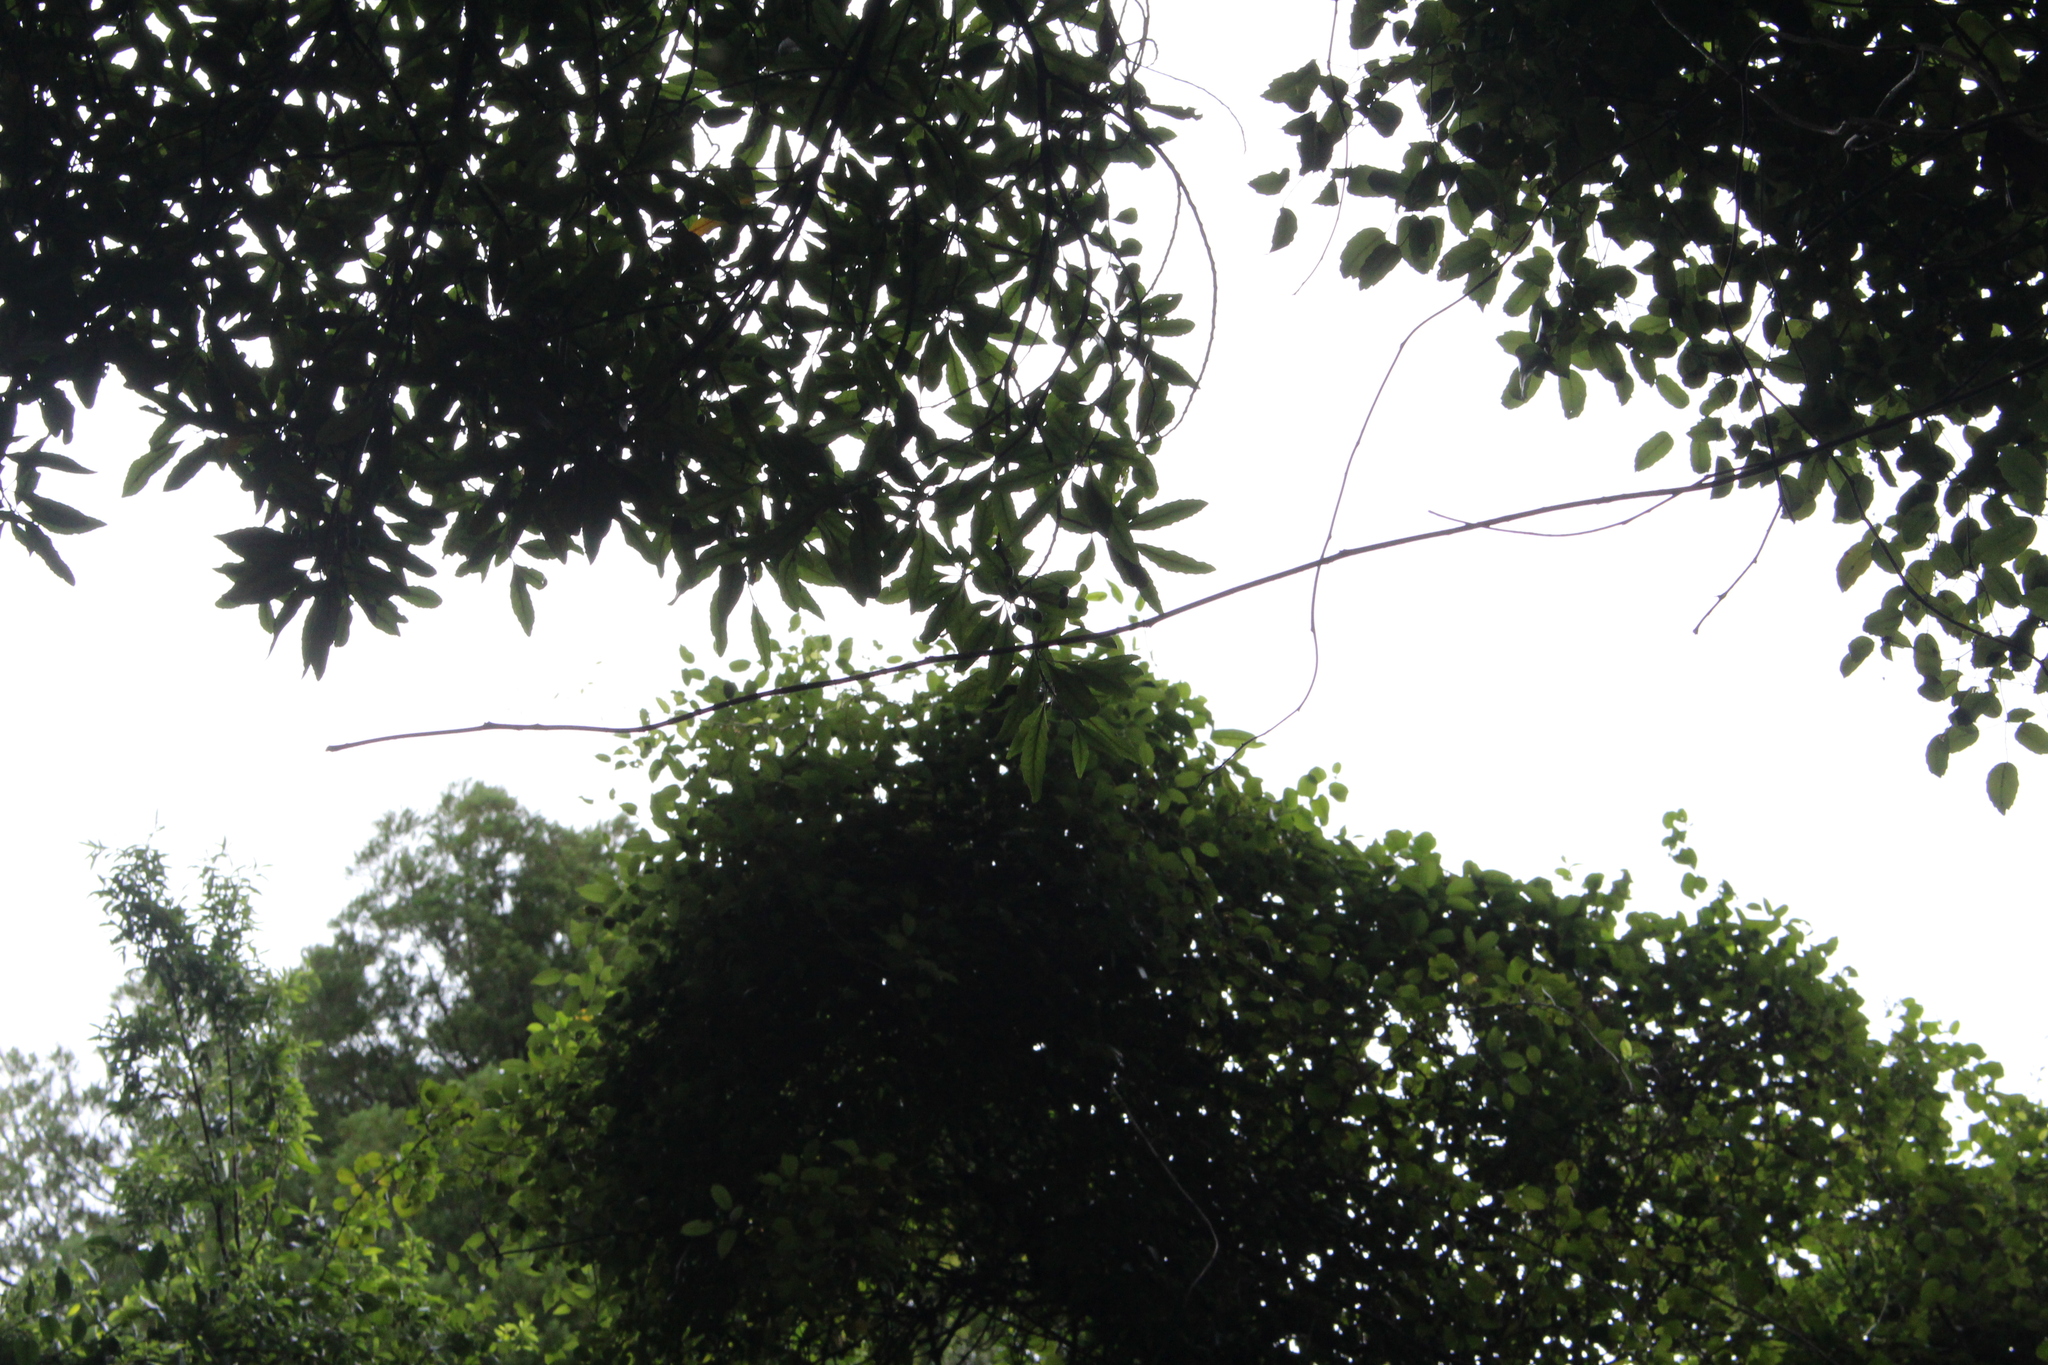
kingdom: Plantae
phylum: Tracheophyta
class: Magnoliopsida
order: Oxalidales
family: Elaeocarpaceae
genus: Elaeocarpus
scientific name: Elaeocarpus dentatus
